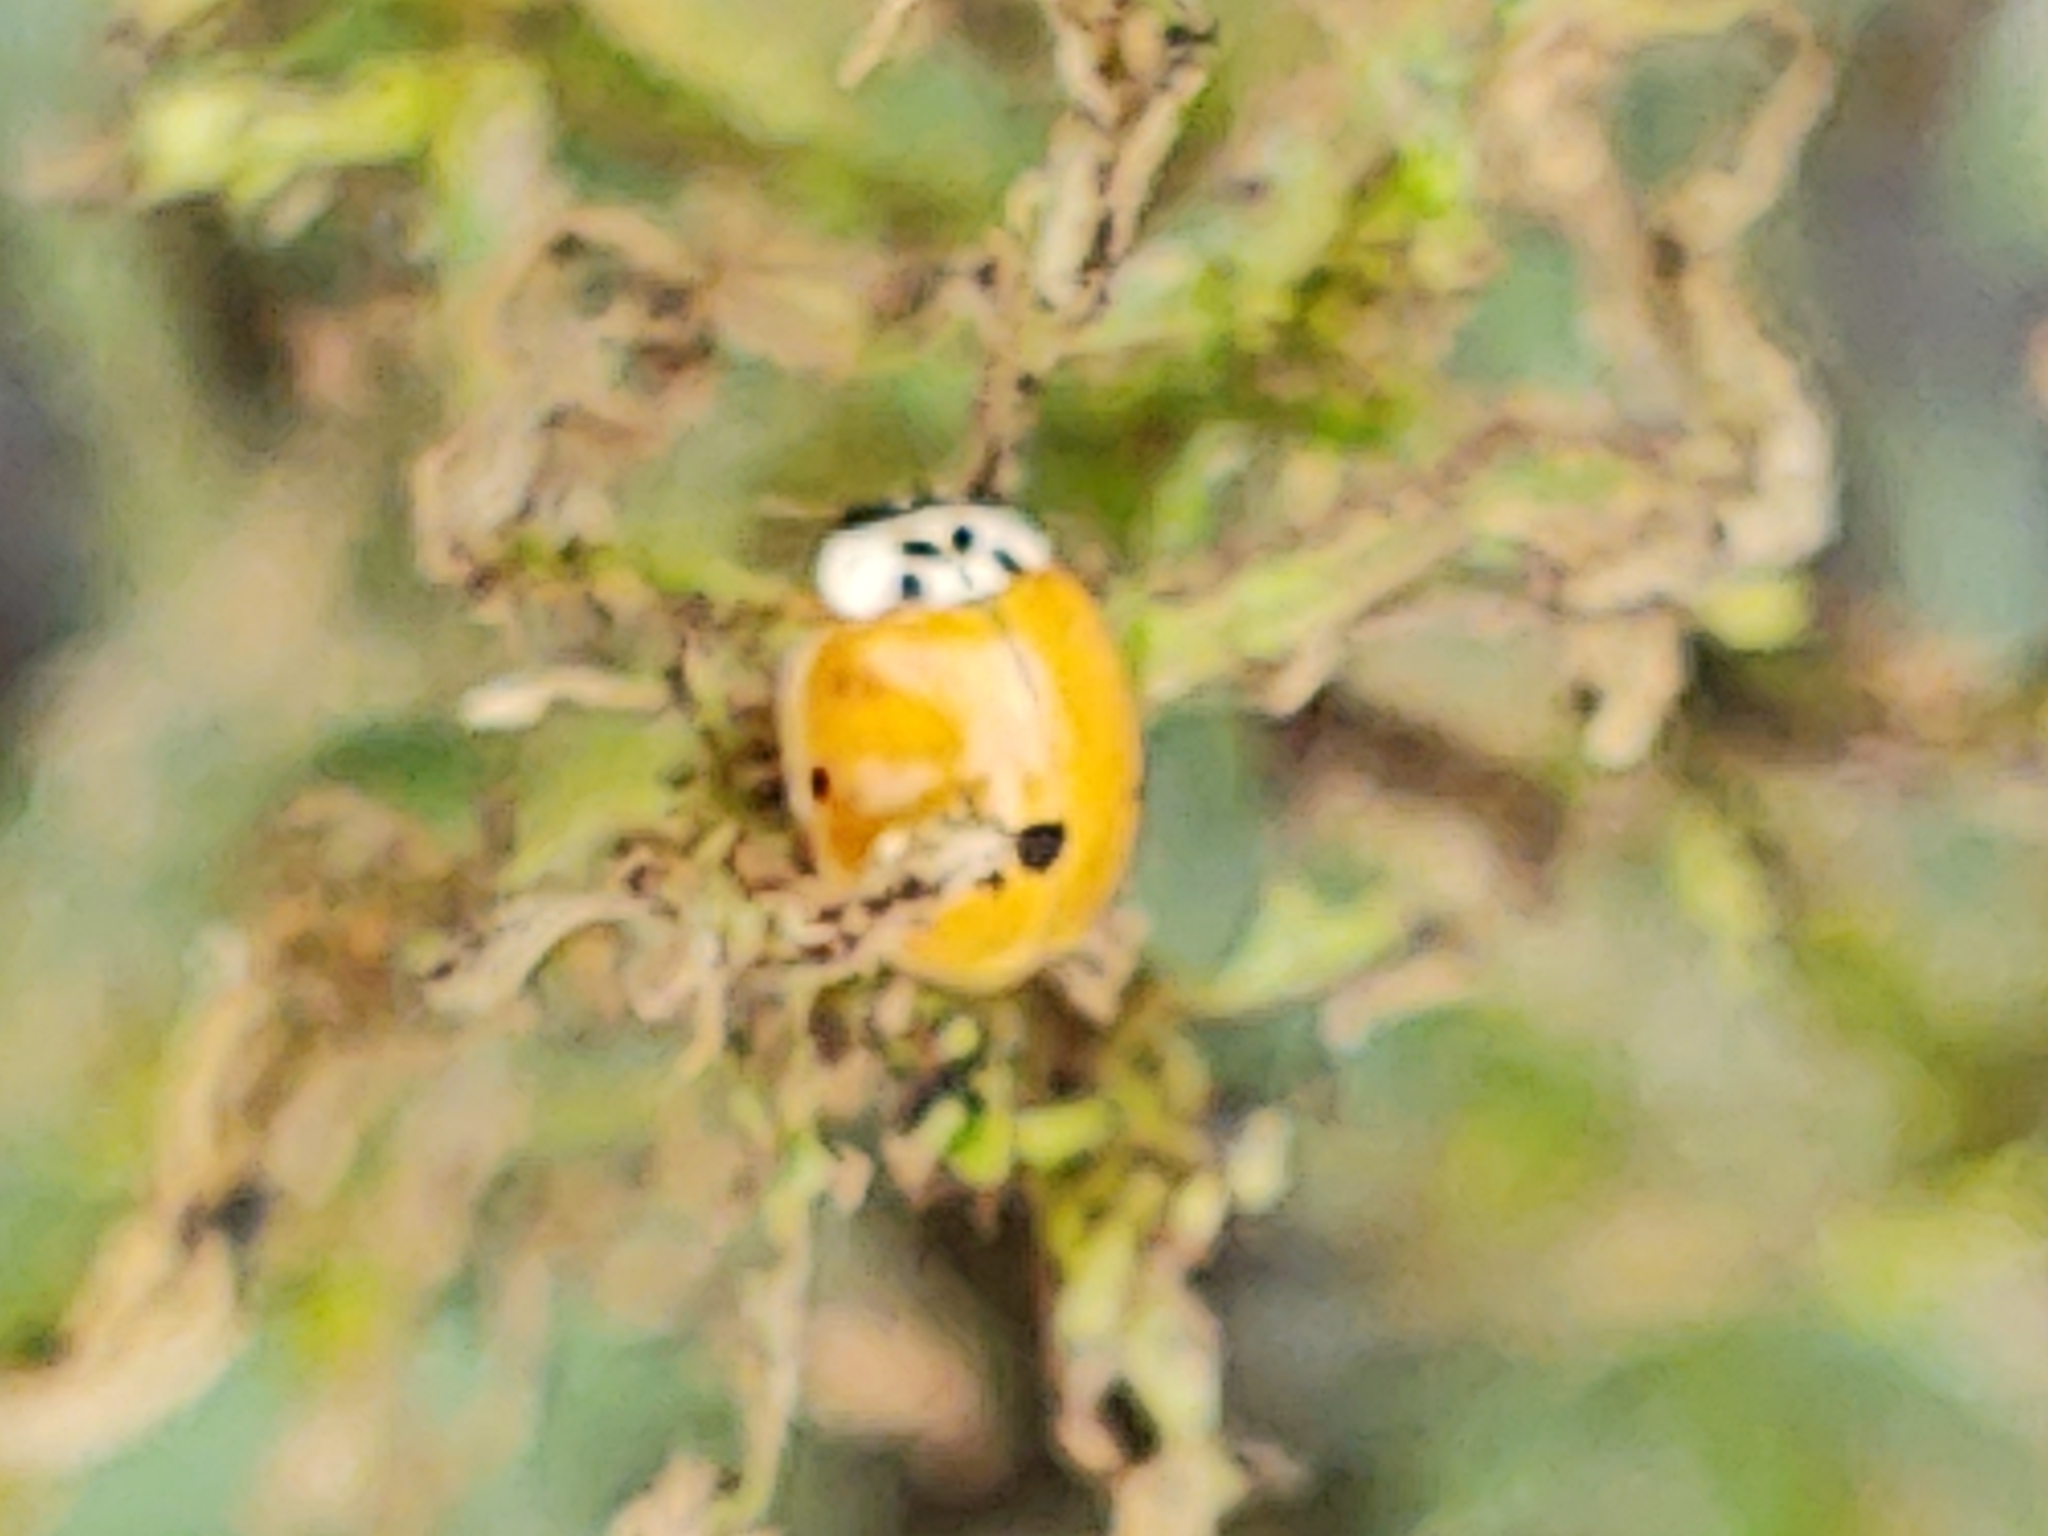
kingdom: Animalia
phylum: Arthropoda
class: Insecta
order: Coleoptera
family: Coccinellidae
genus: Harmonia
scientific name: Harmonia axyridis
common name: Harlequin ladybird
